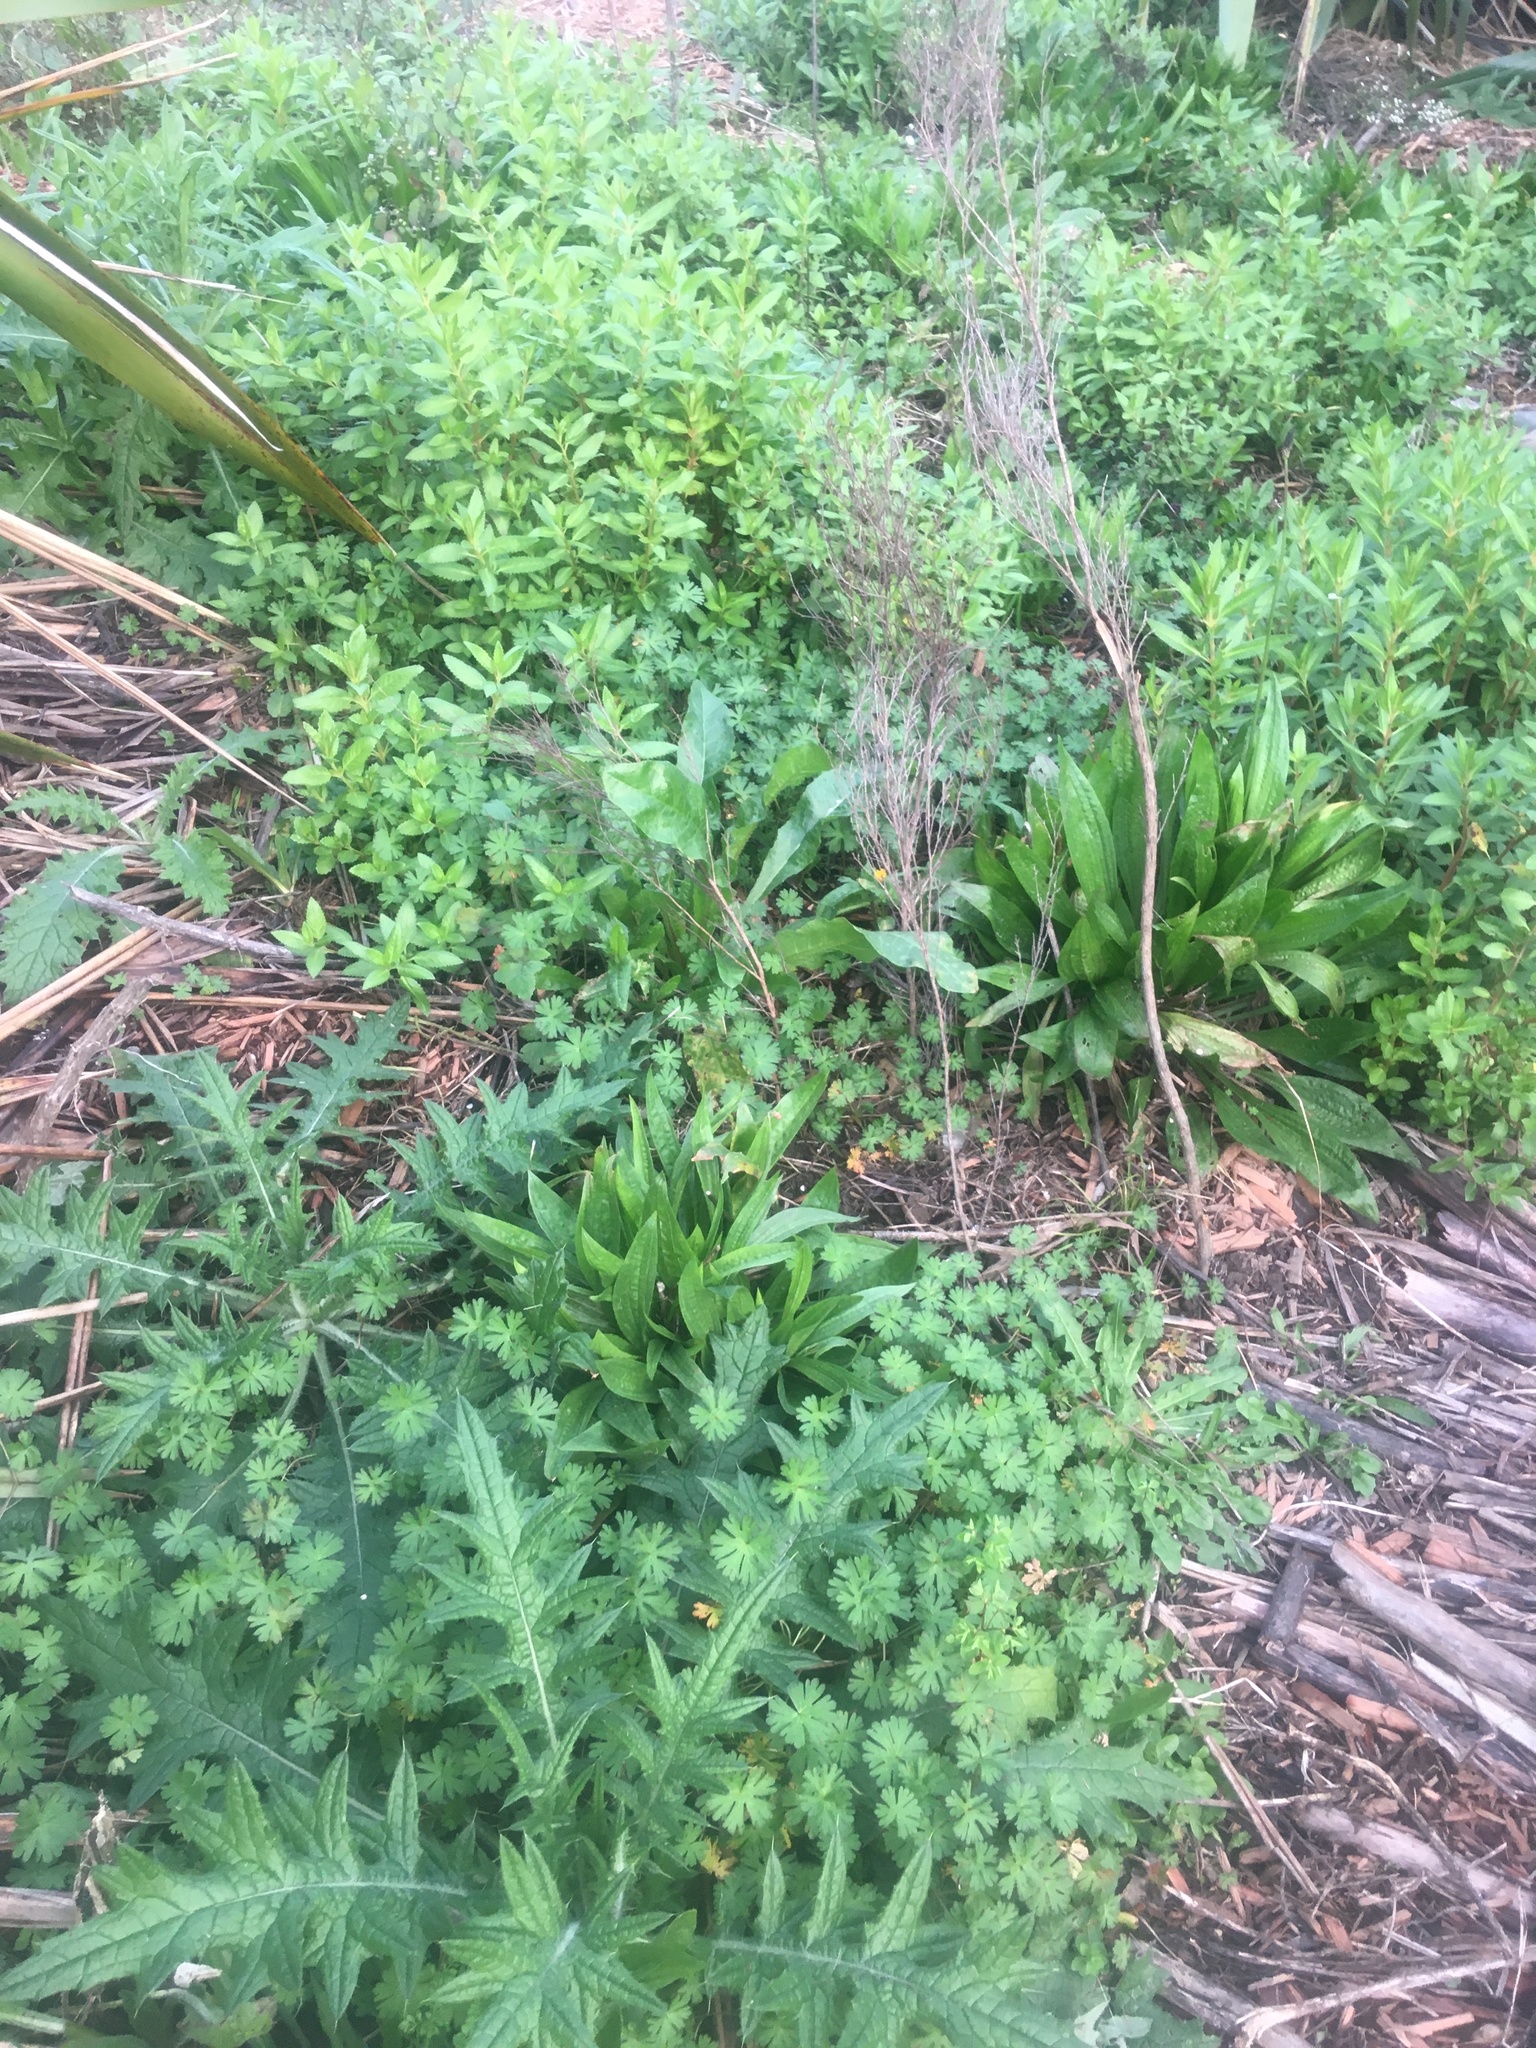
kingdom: Plantae
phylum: Tracheophyta
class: Magnoliopsida
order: Lamiales
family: Plantaginaceae
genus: Plantago
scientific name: Plantago lanceolata
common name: Ribwort plantain
